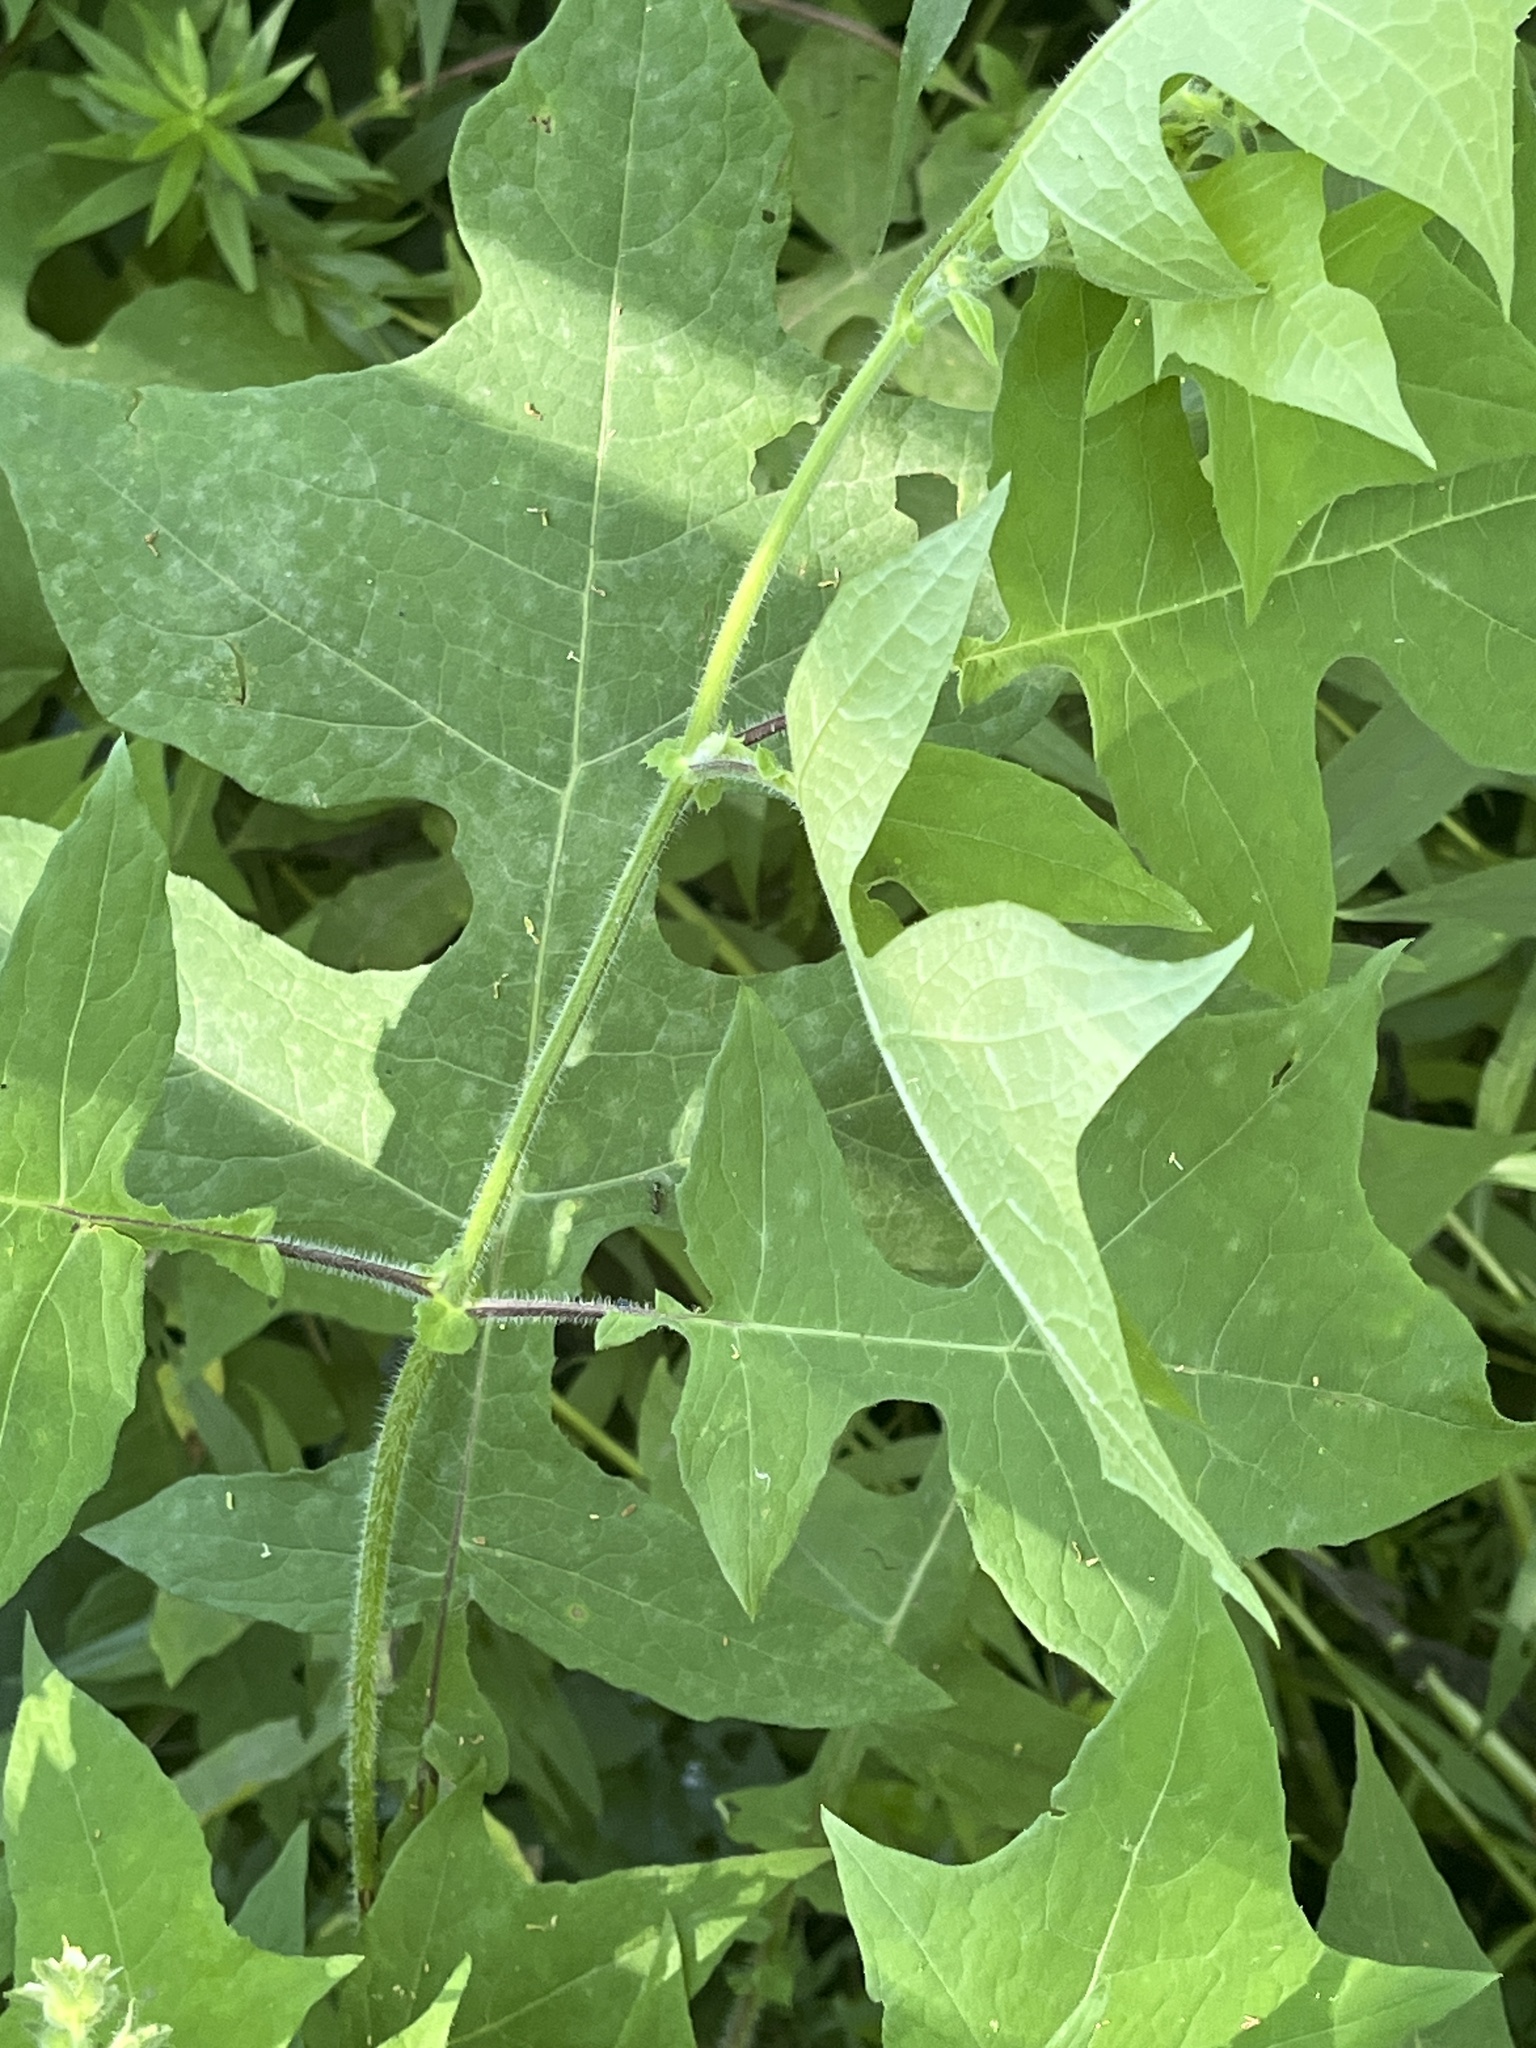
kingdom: Plantae
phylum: Tracheophyta
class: Magnoliopsida
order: Asterales
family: Asteraceae
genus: Polymnia
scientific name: Polymnia canadensis
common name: Pale-flowered leafcup
